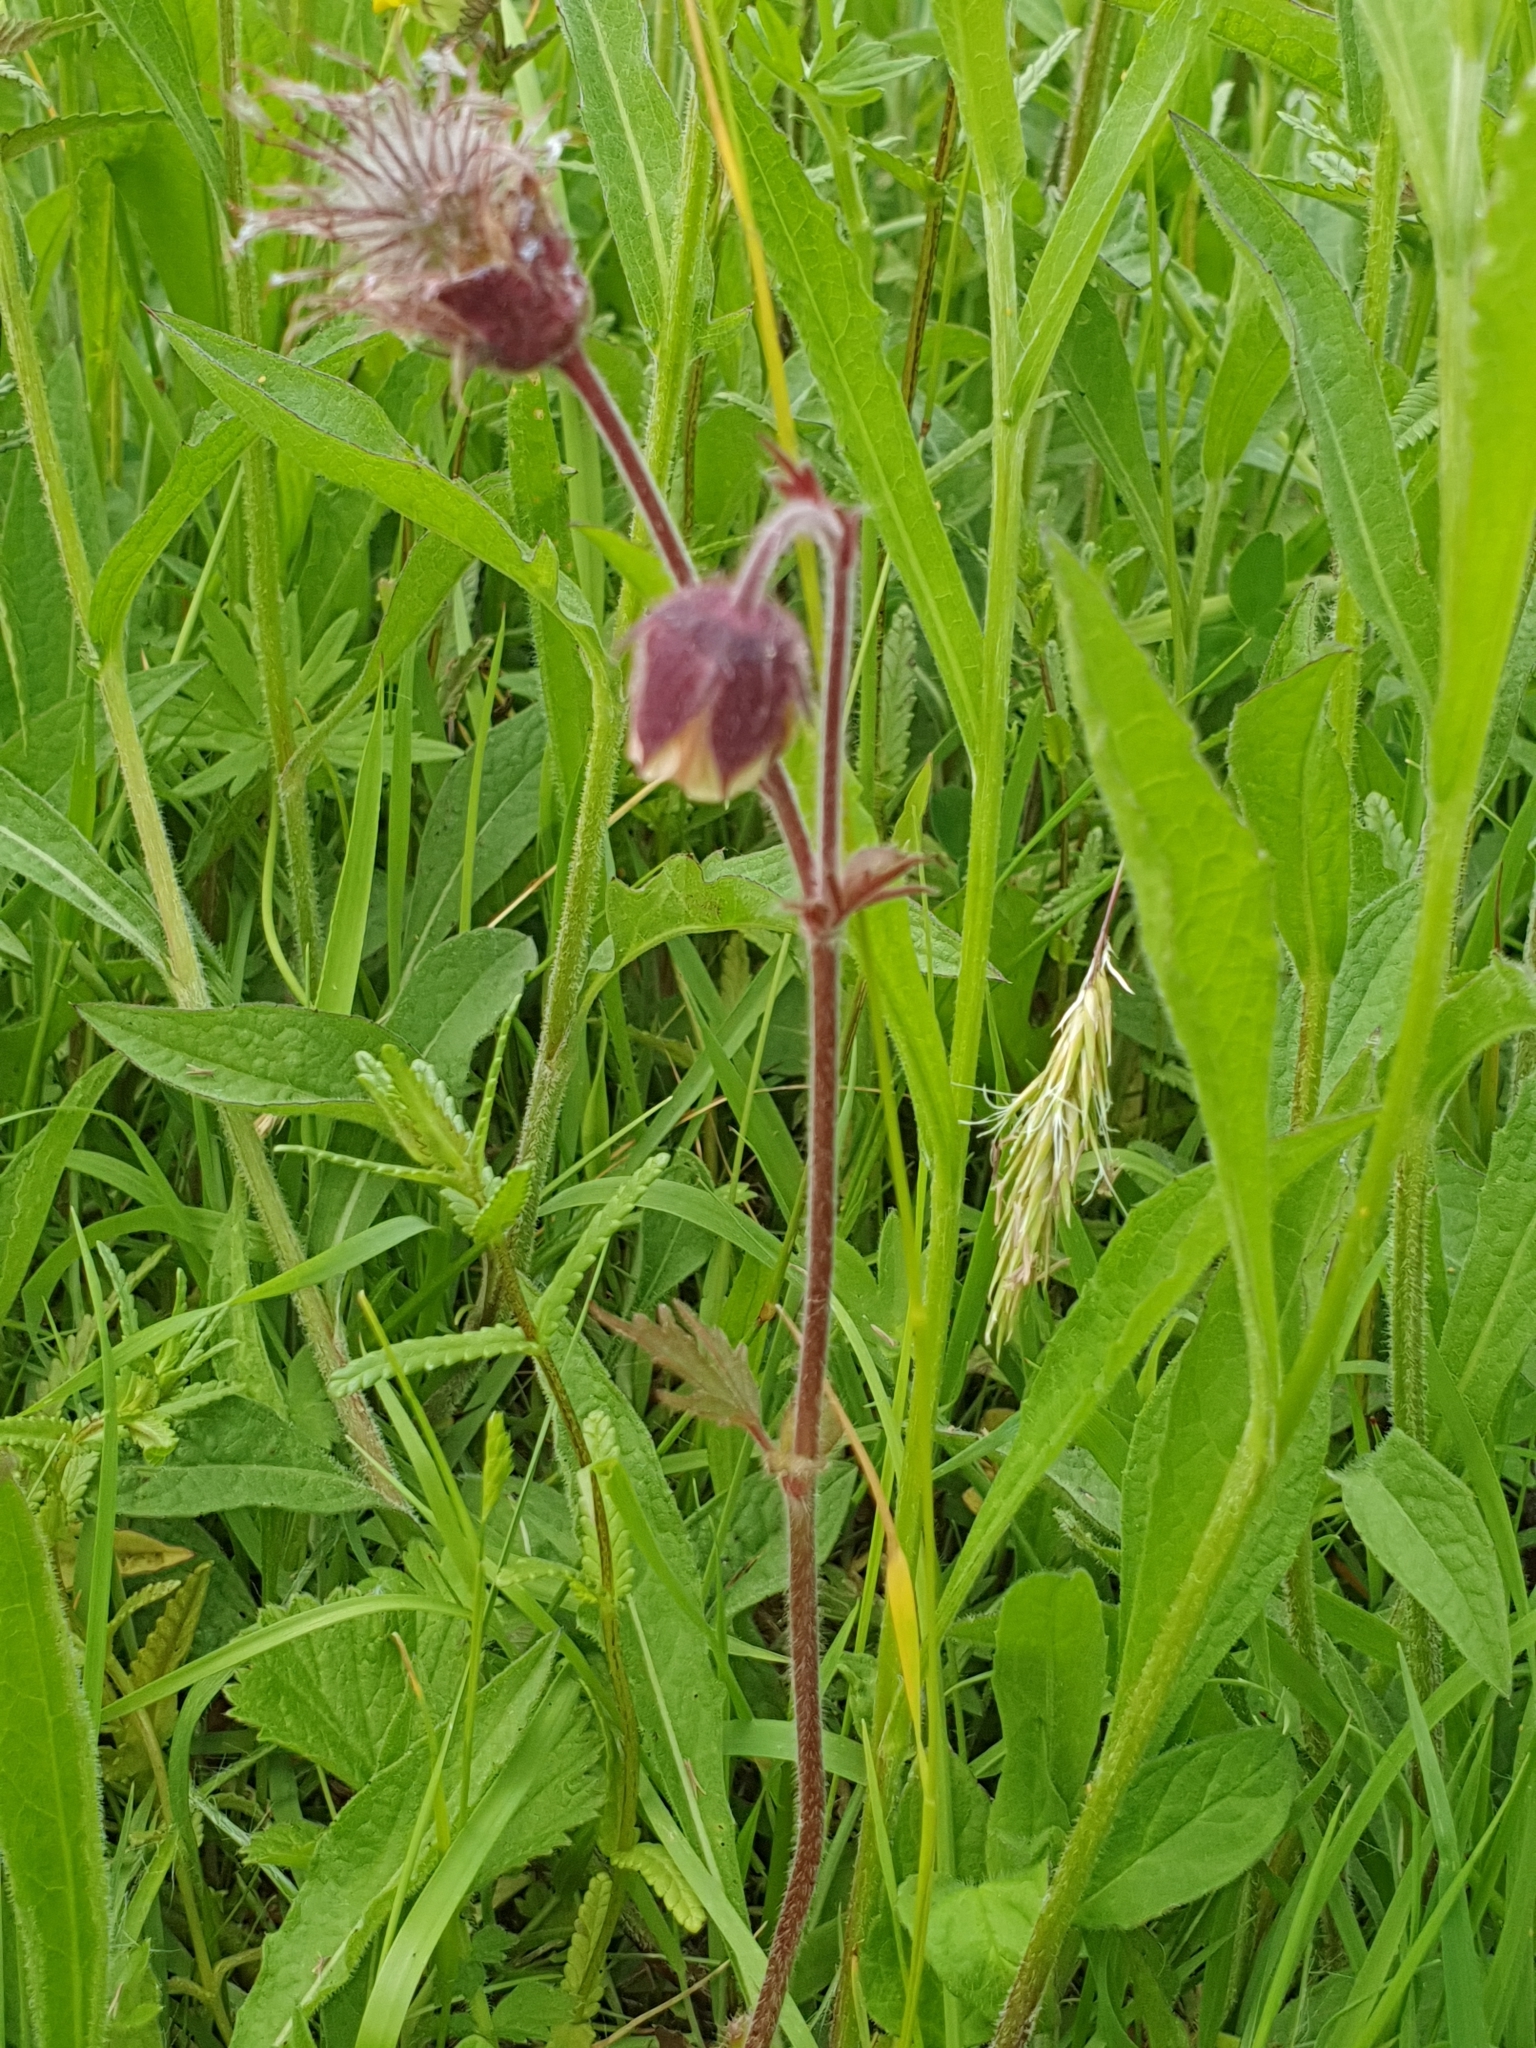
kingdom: Plantae
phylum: Tracheophyta
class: Magnoliopsida
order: Rosales
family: Rosaceae
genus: Geum
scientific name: Geum rivale
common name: Water avens
